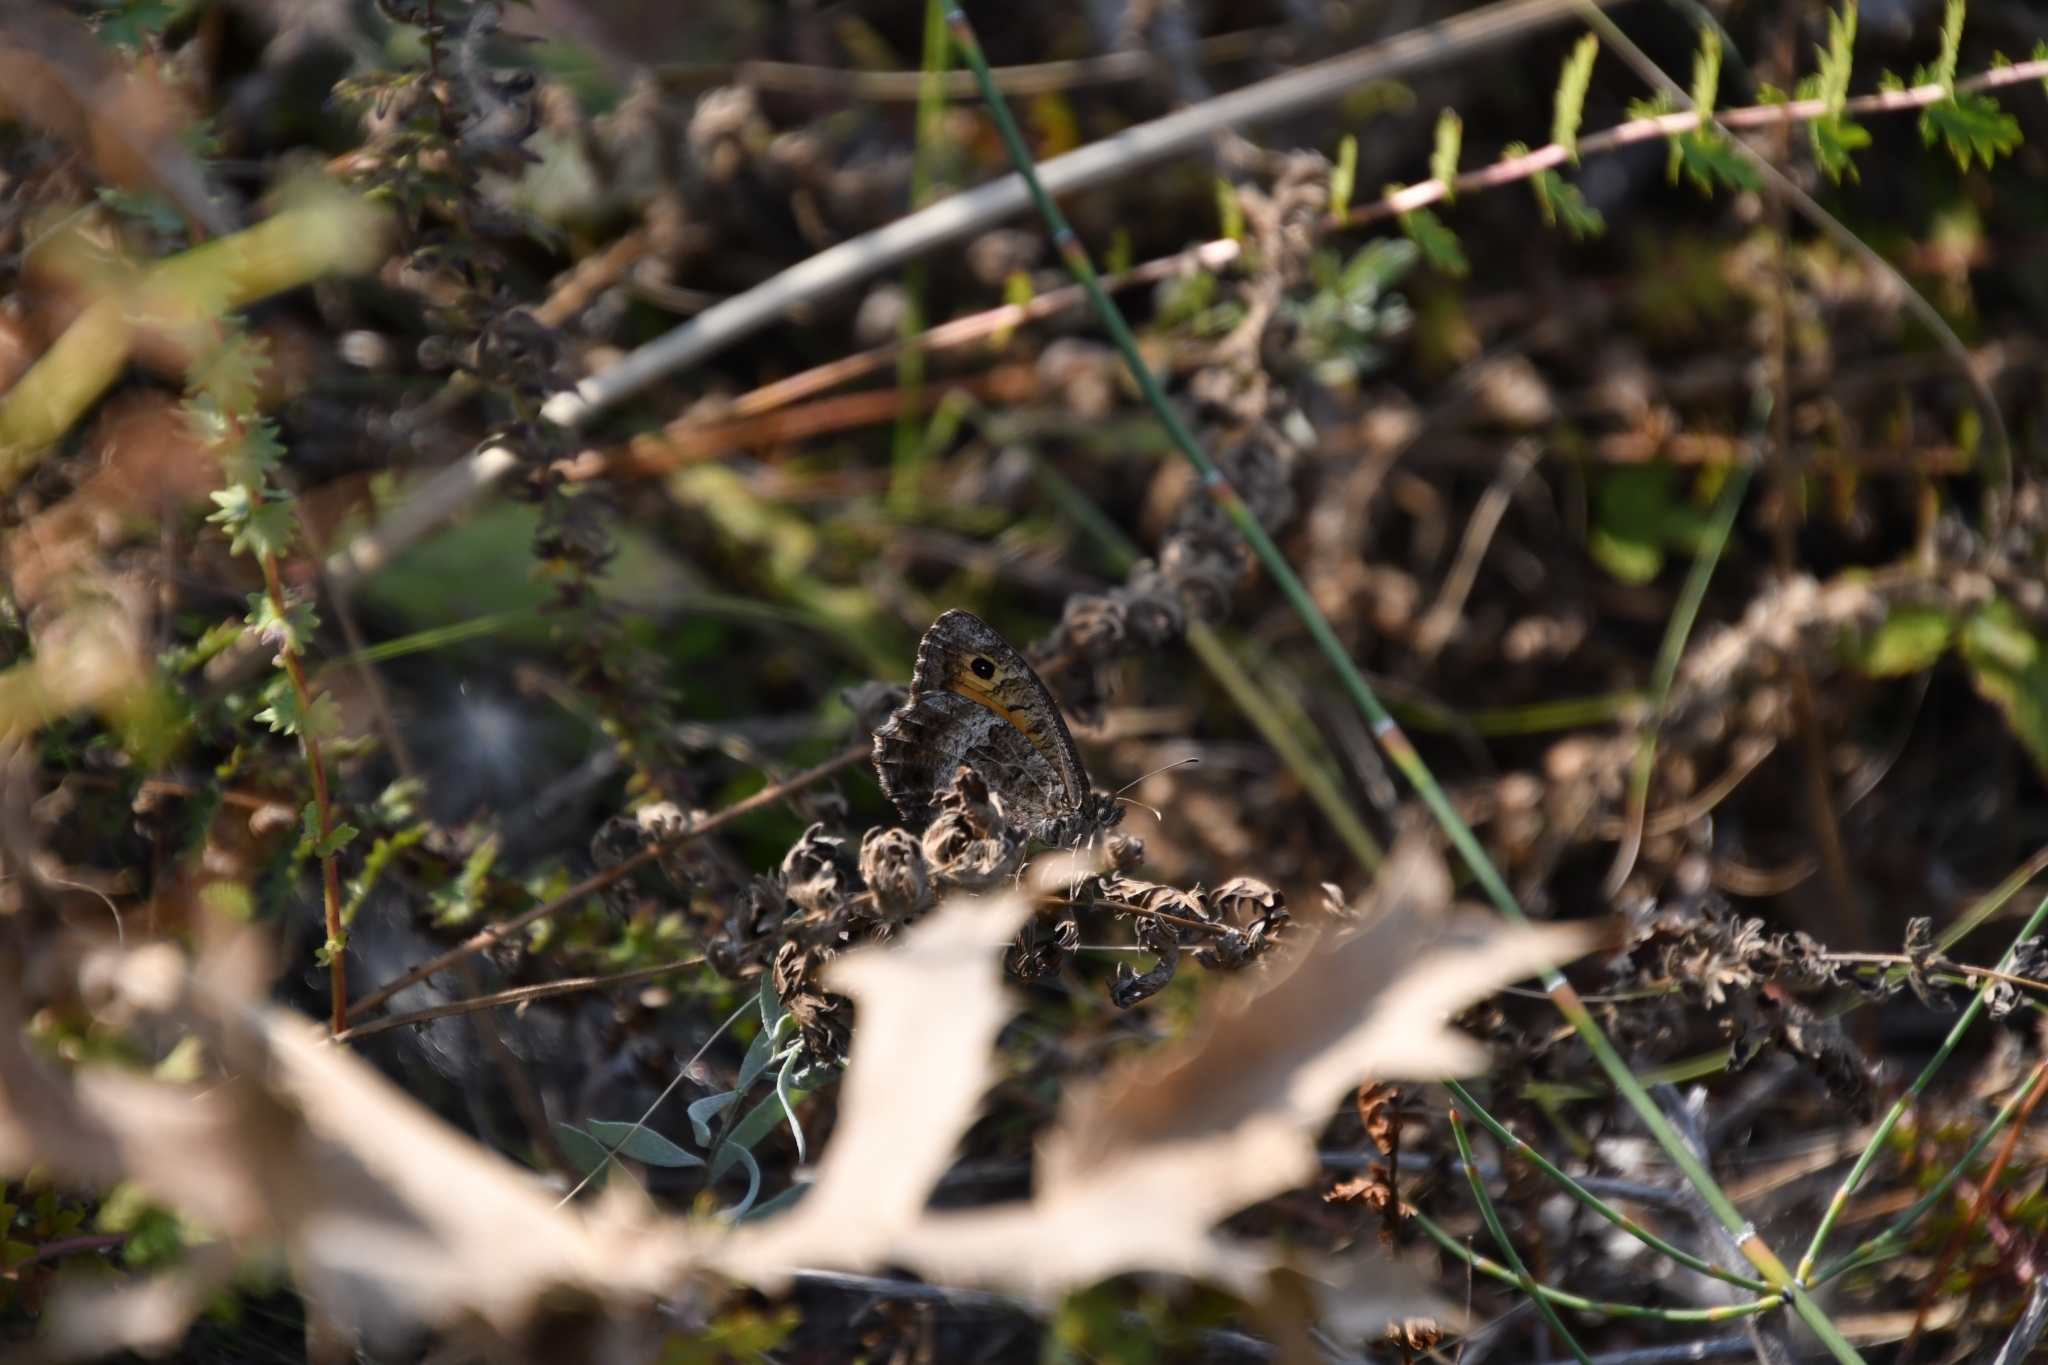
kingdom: Animalia
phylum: Arthropoda
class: Insecta
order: Lepidoptera
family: Nymphalidae
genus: Arethusana
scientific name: Arethusana arethusa
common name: False grayling
